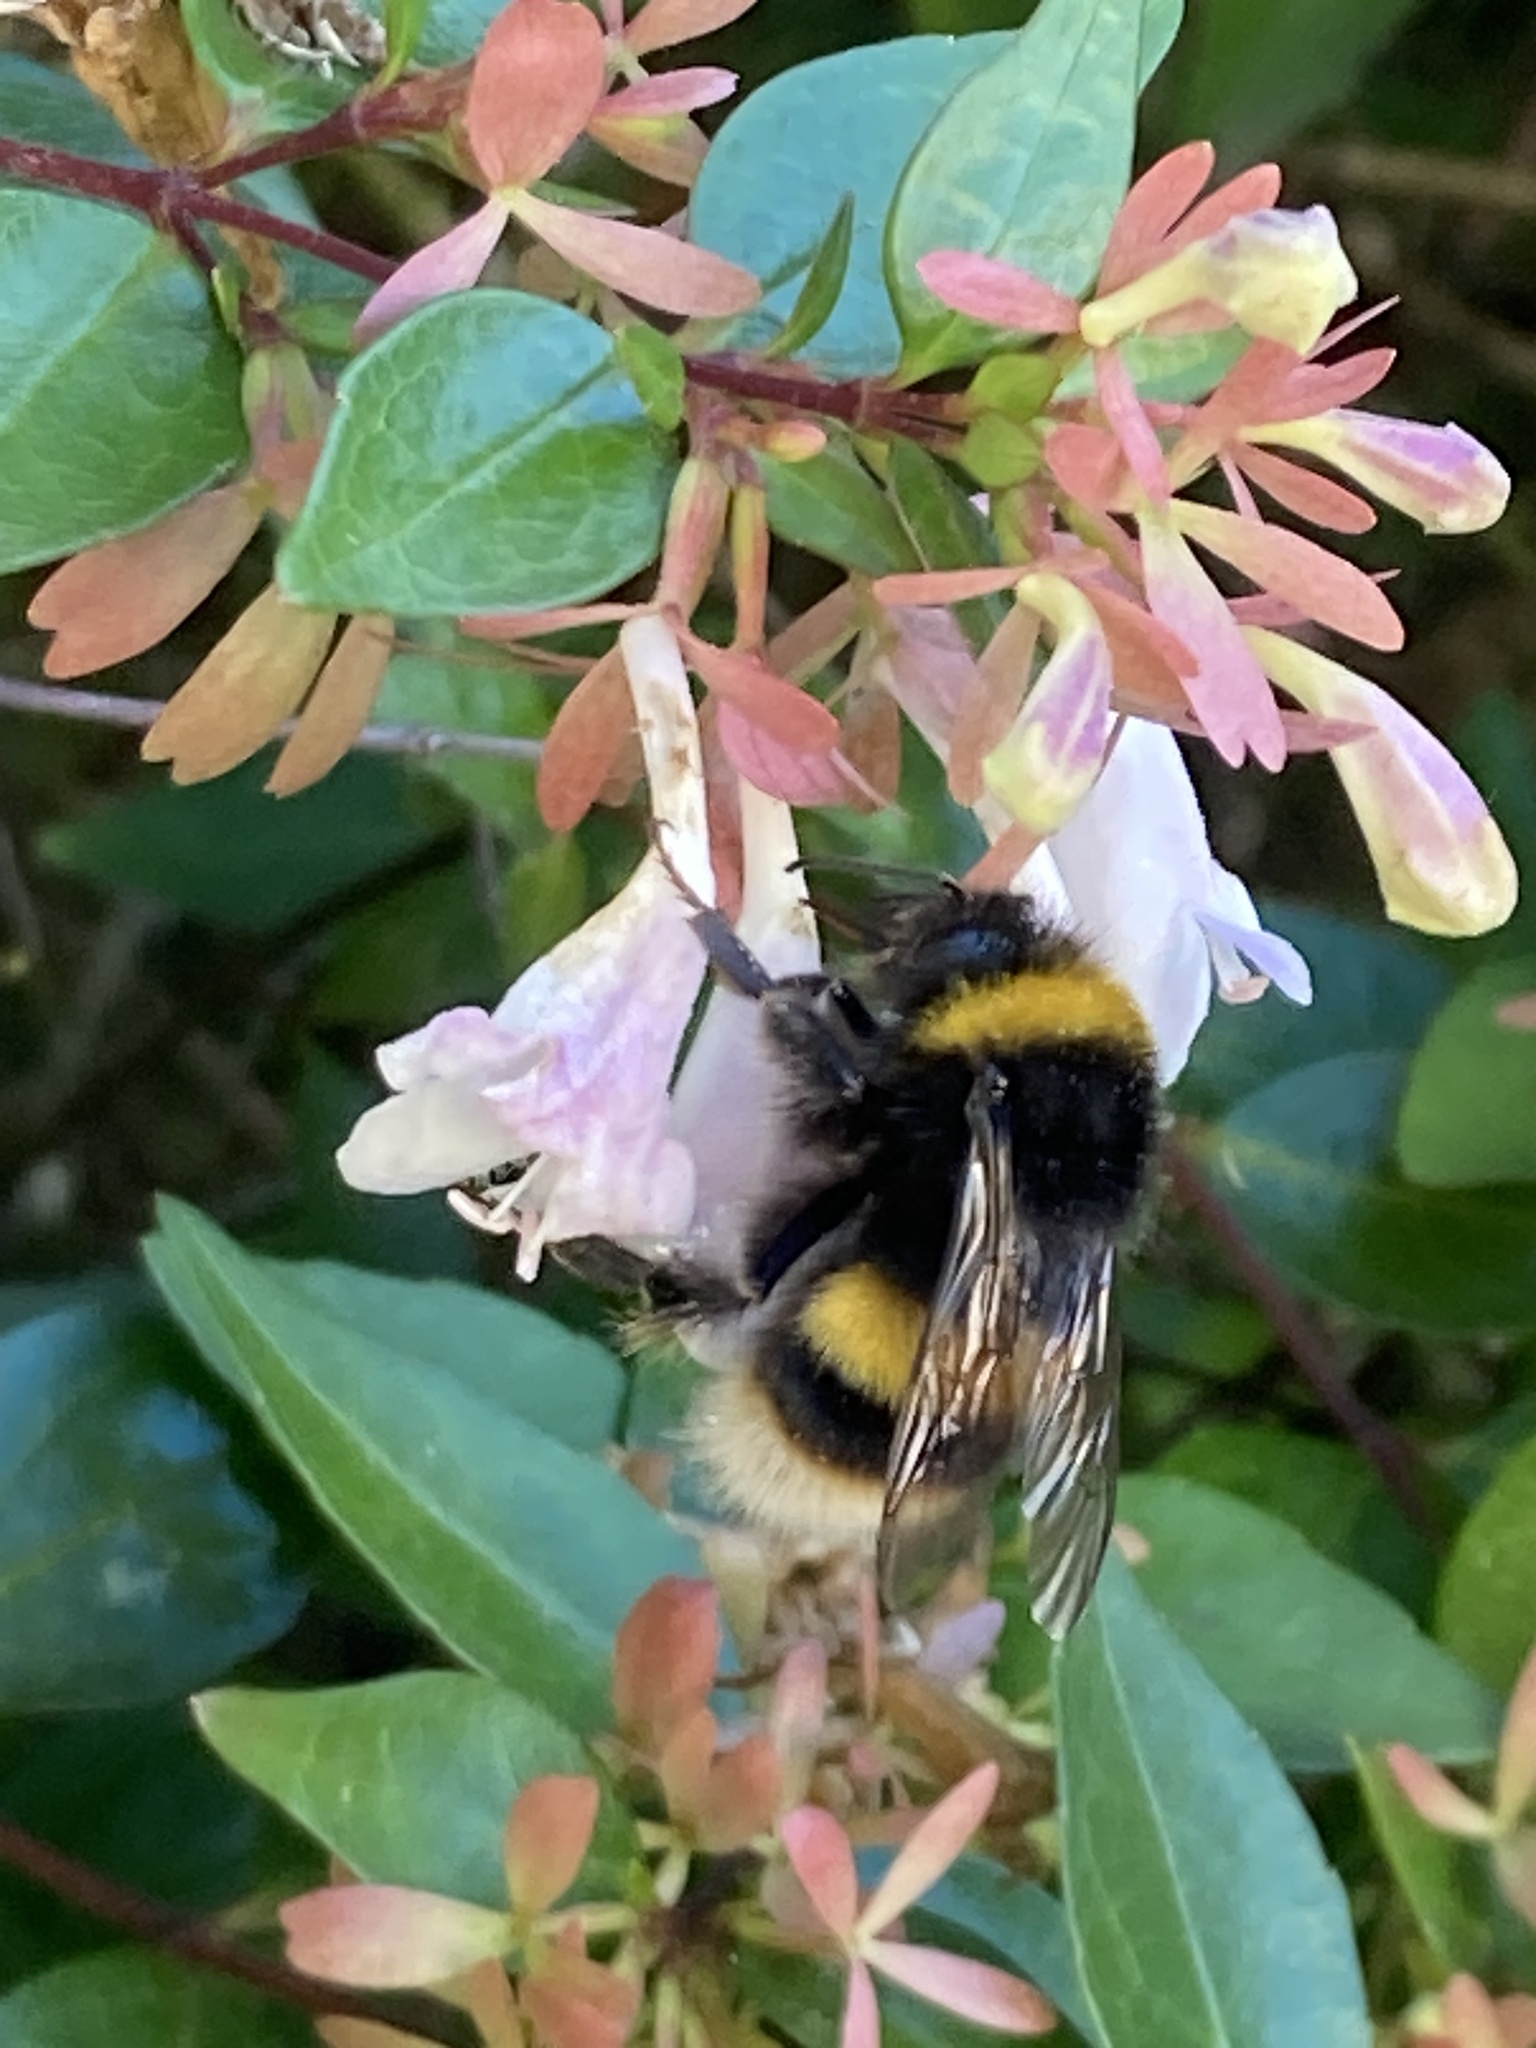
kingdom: Animalia
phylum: Arthropoda
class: Insecta
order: Hymenoptera
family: Apidae
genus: Bombus
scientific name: Bombus terrestris
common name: Buff-tailed bumblebee
